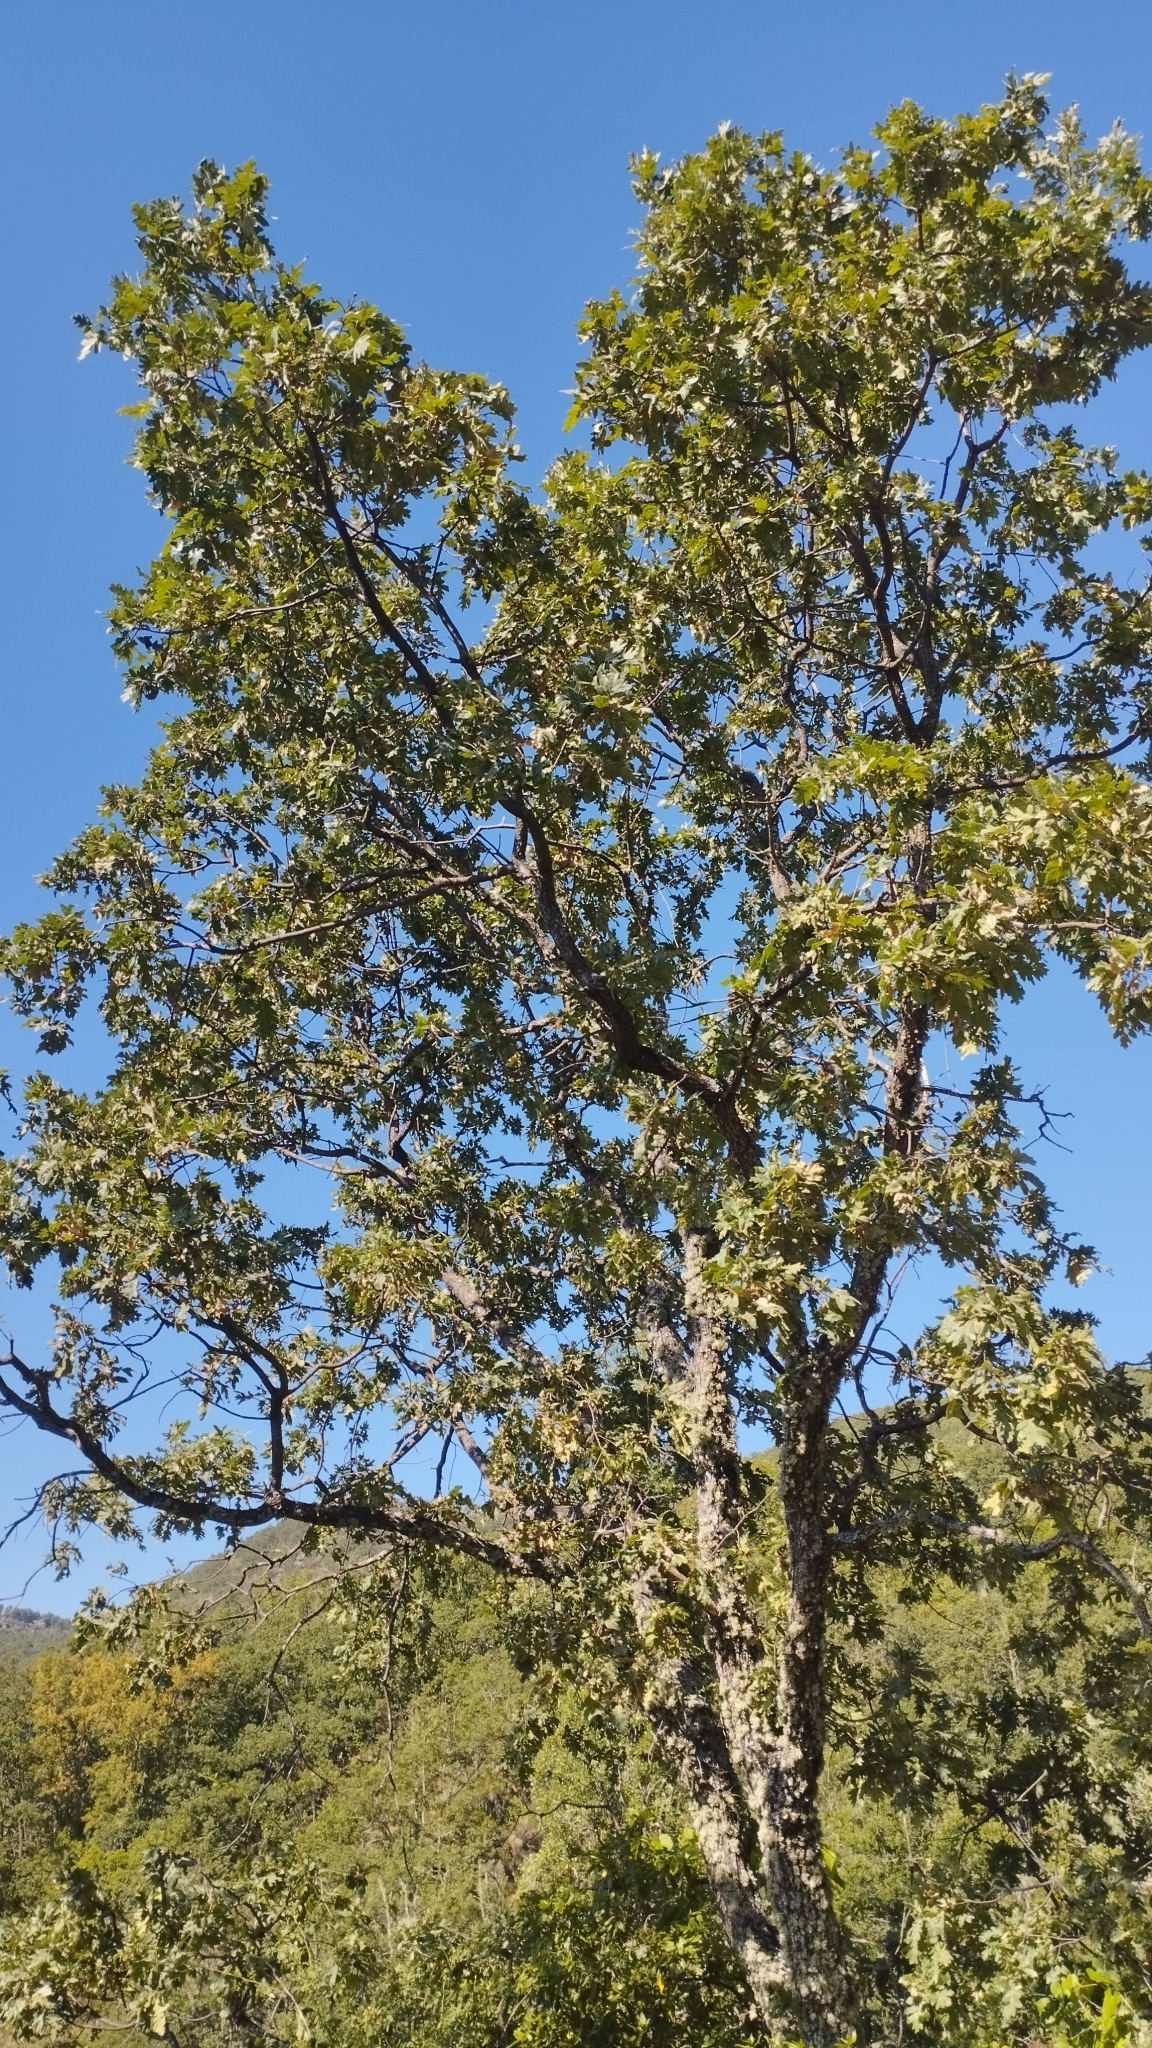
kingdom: Plantae
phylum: Tracheophyta
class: Magnoliopsida
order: Fagales
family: Fagaceae
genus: Quercus
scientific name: Quercus pyrenaica
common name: Pyrenean oak
